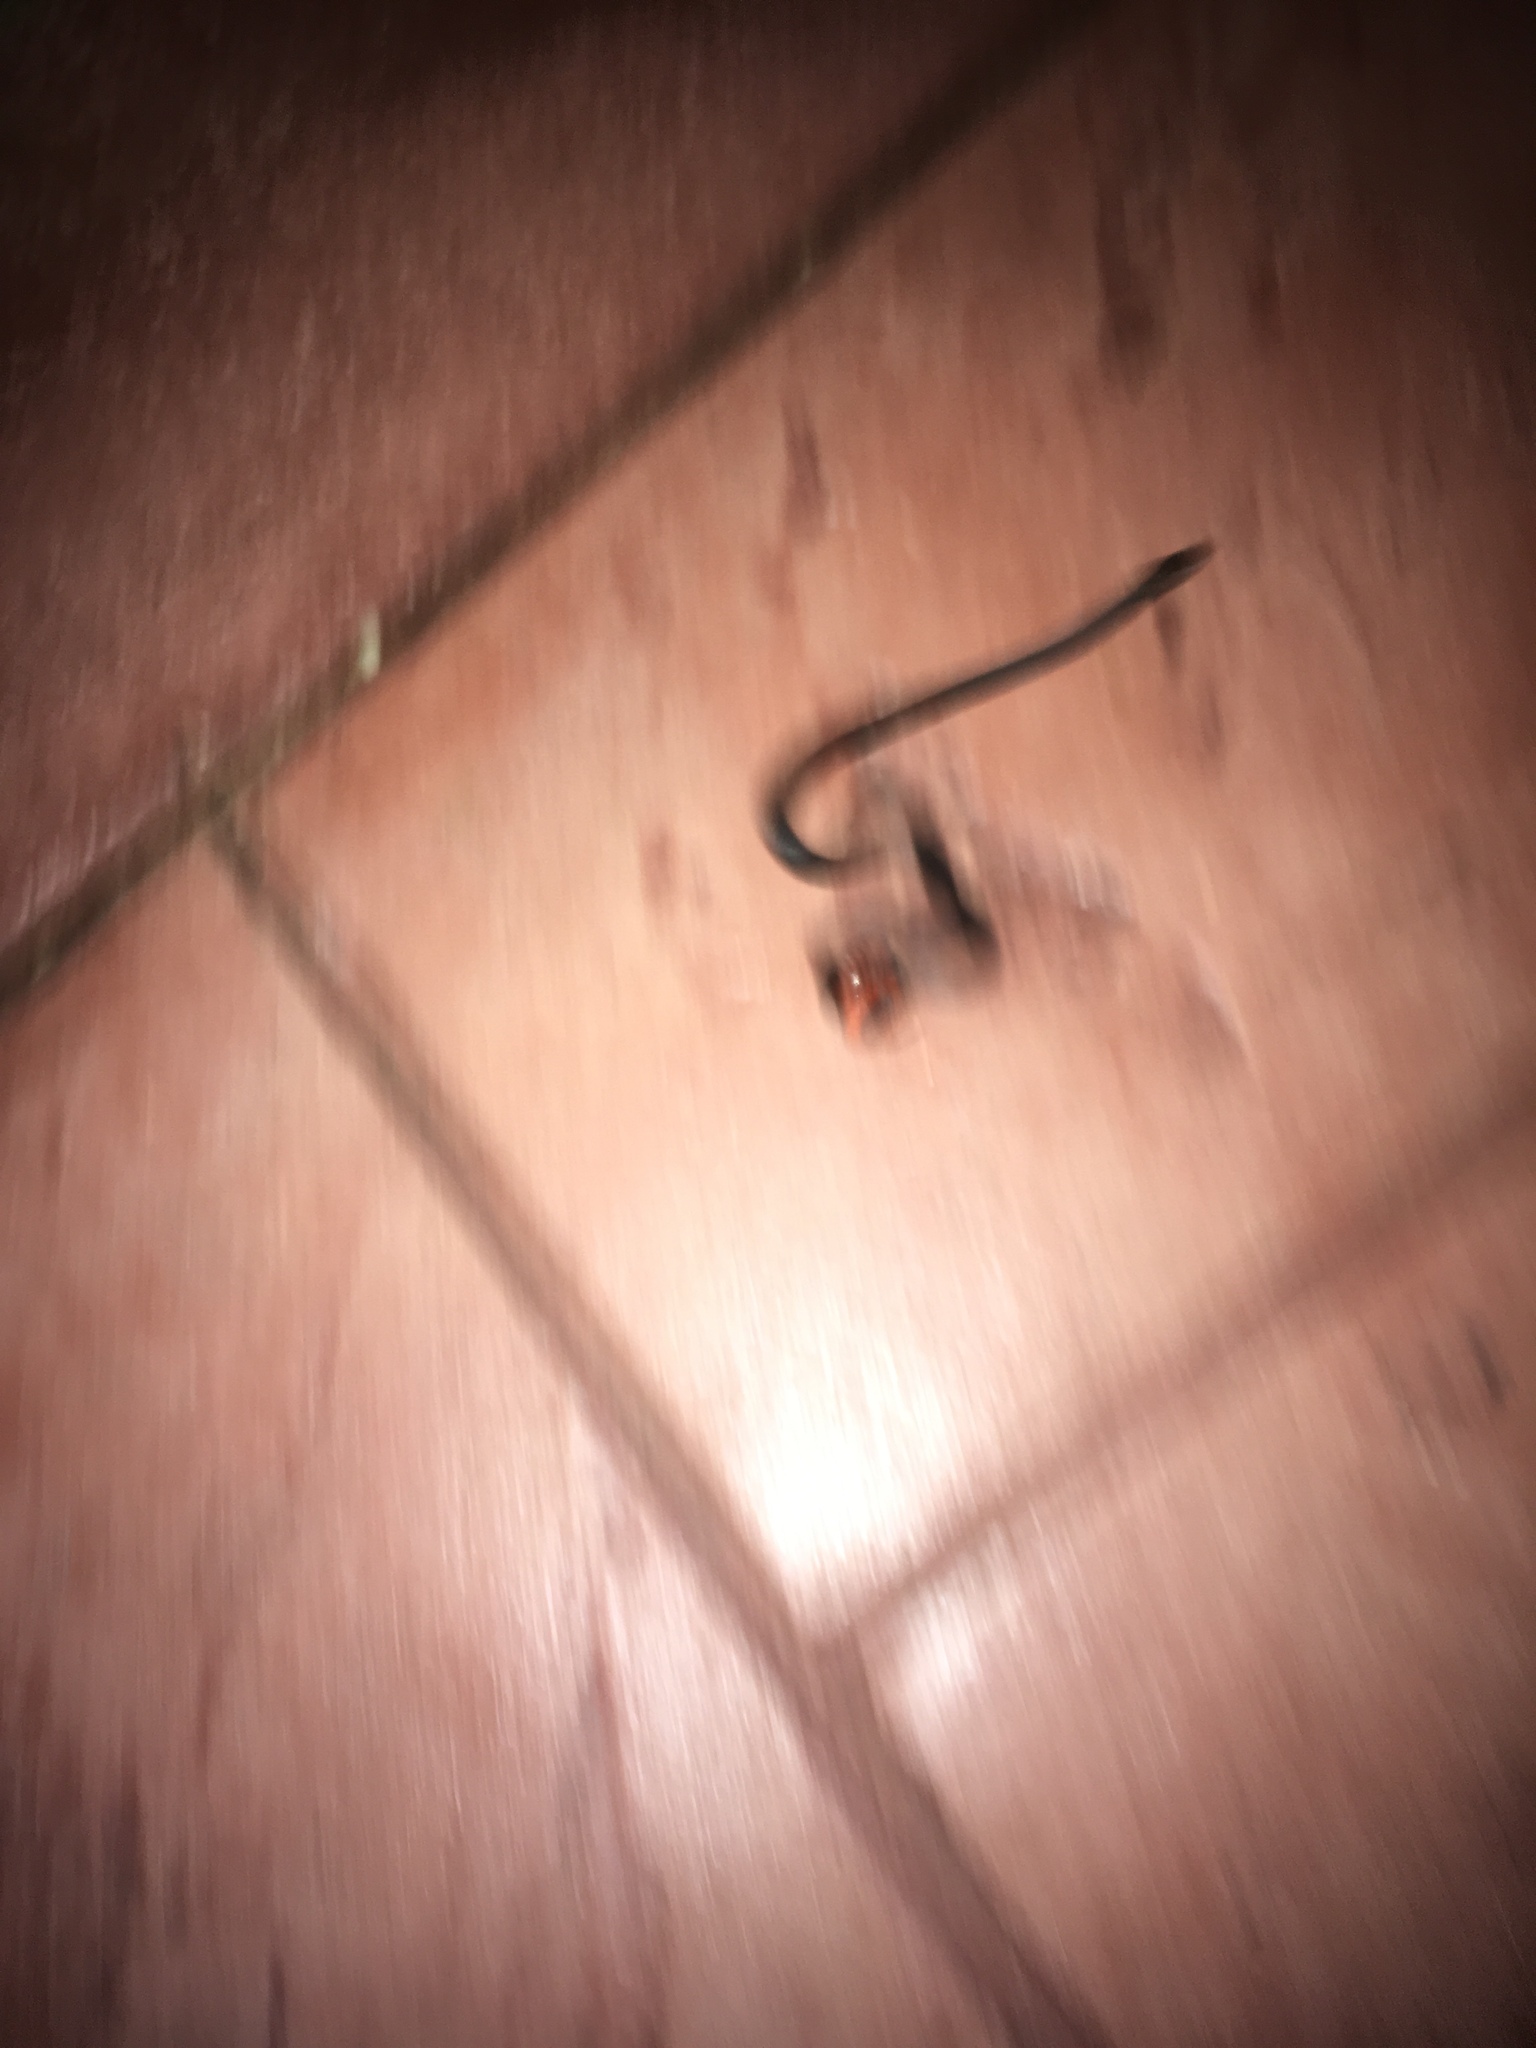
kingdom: Animalia
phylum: Chordata
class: Squamata
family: Colubridae
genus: Diadophis
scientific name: Diadophis punctatus
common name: Ringneck snake
